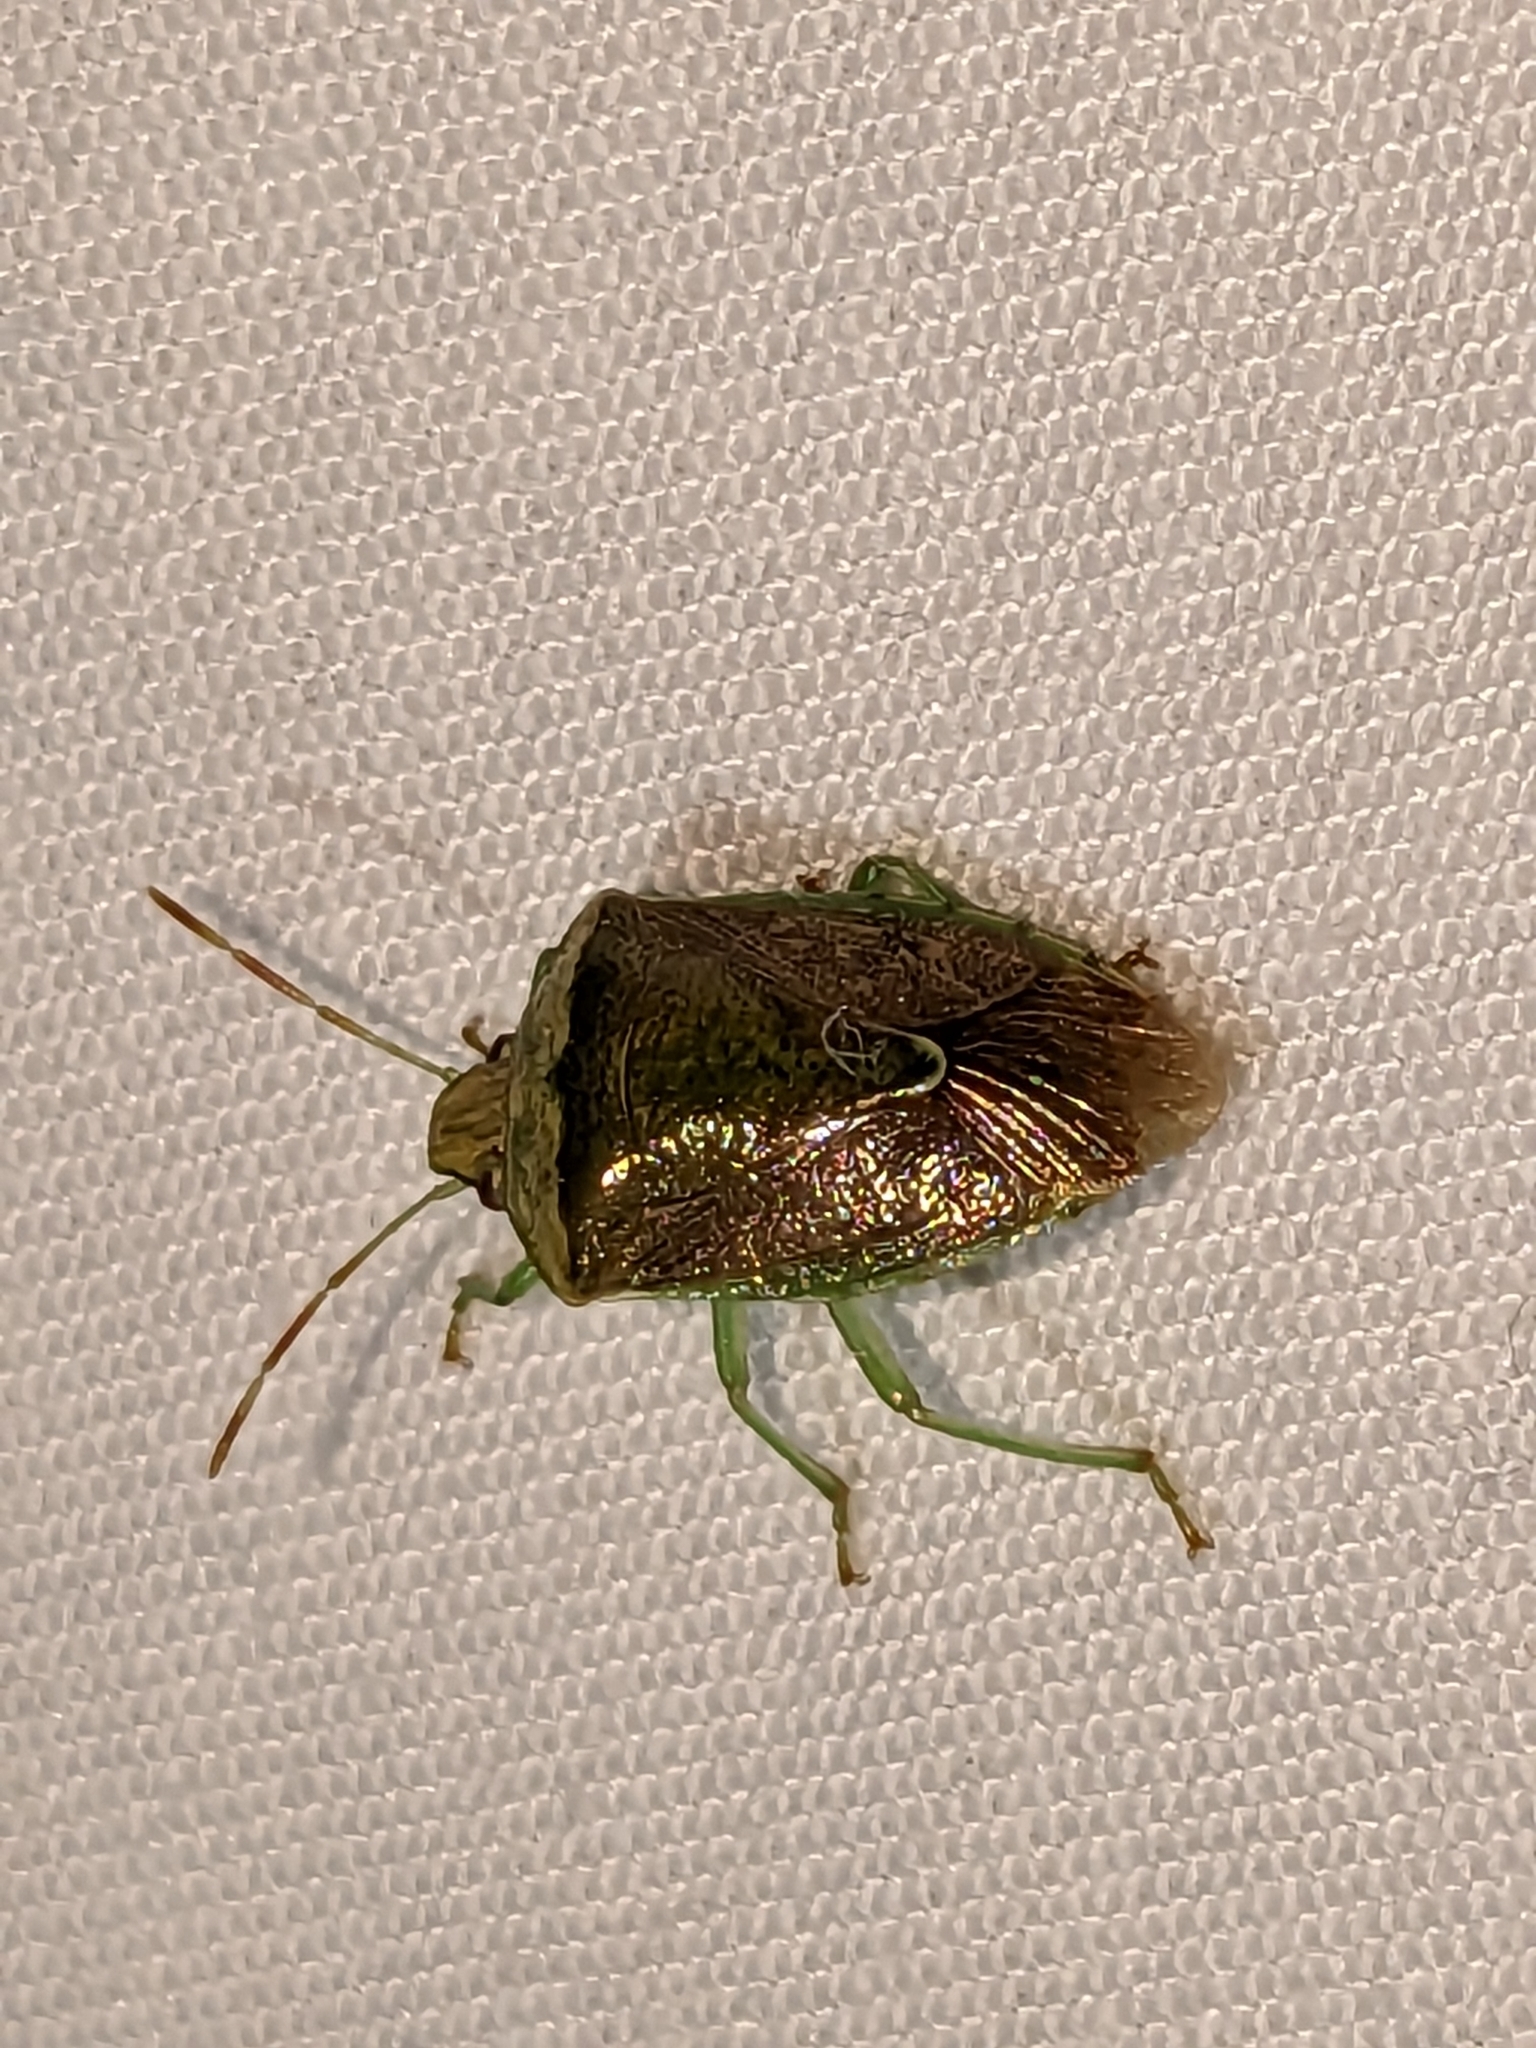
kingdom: Animalia
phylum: Arthropoda
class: Insecta
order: Hemiptera
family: Pentatomidae
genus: Banasa
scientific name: Banasa calva
